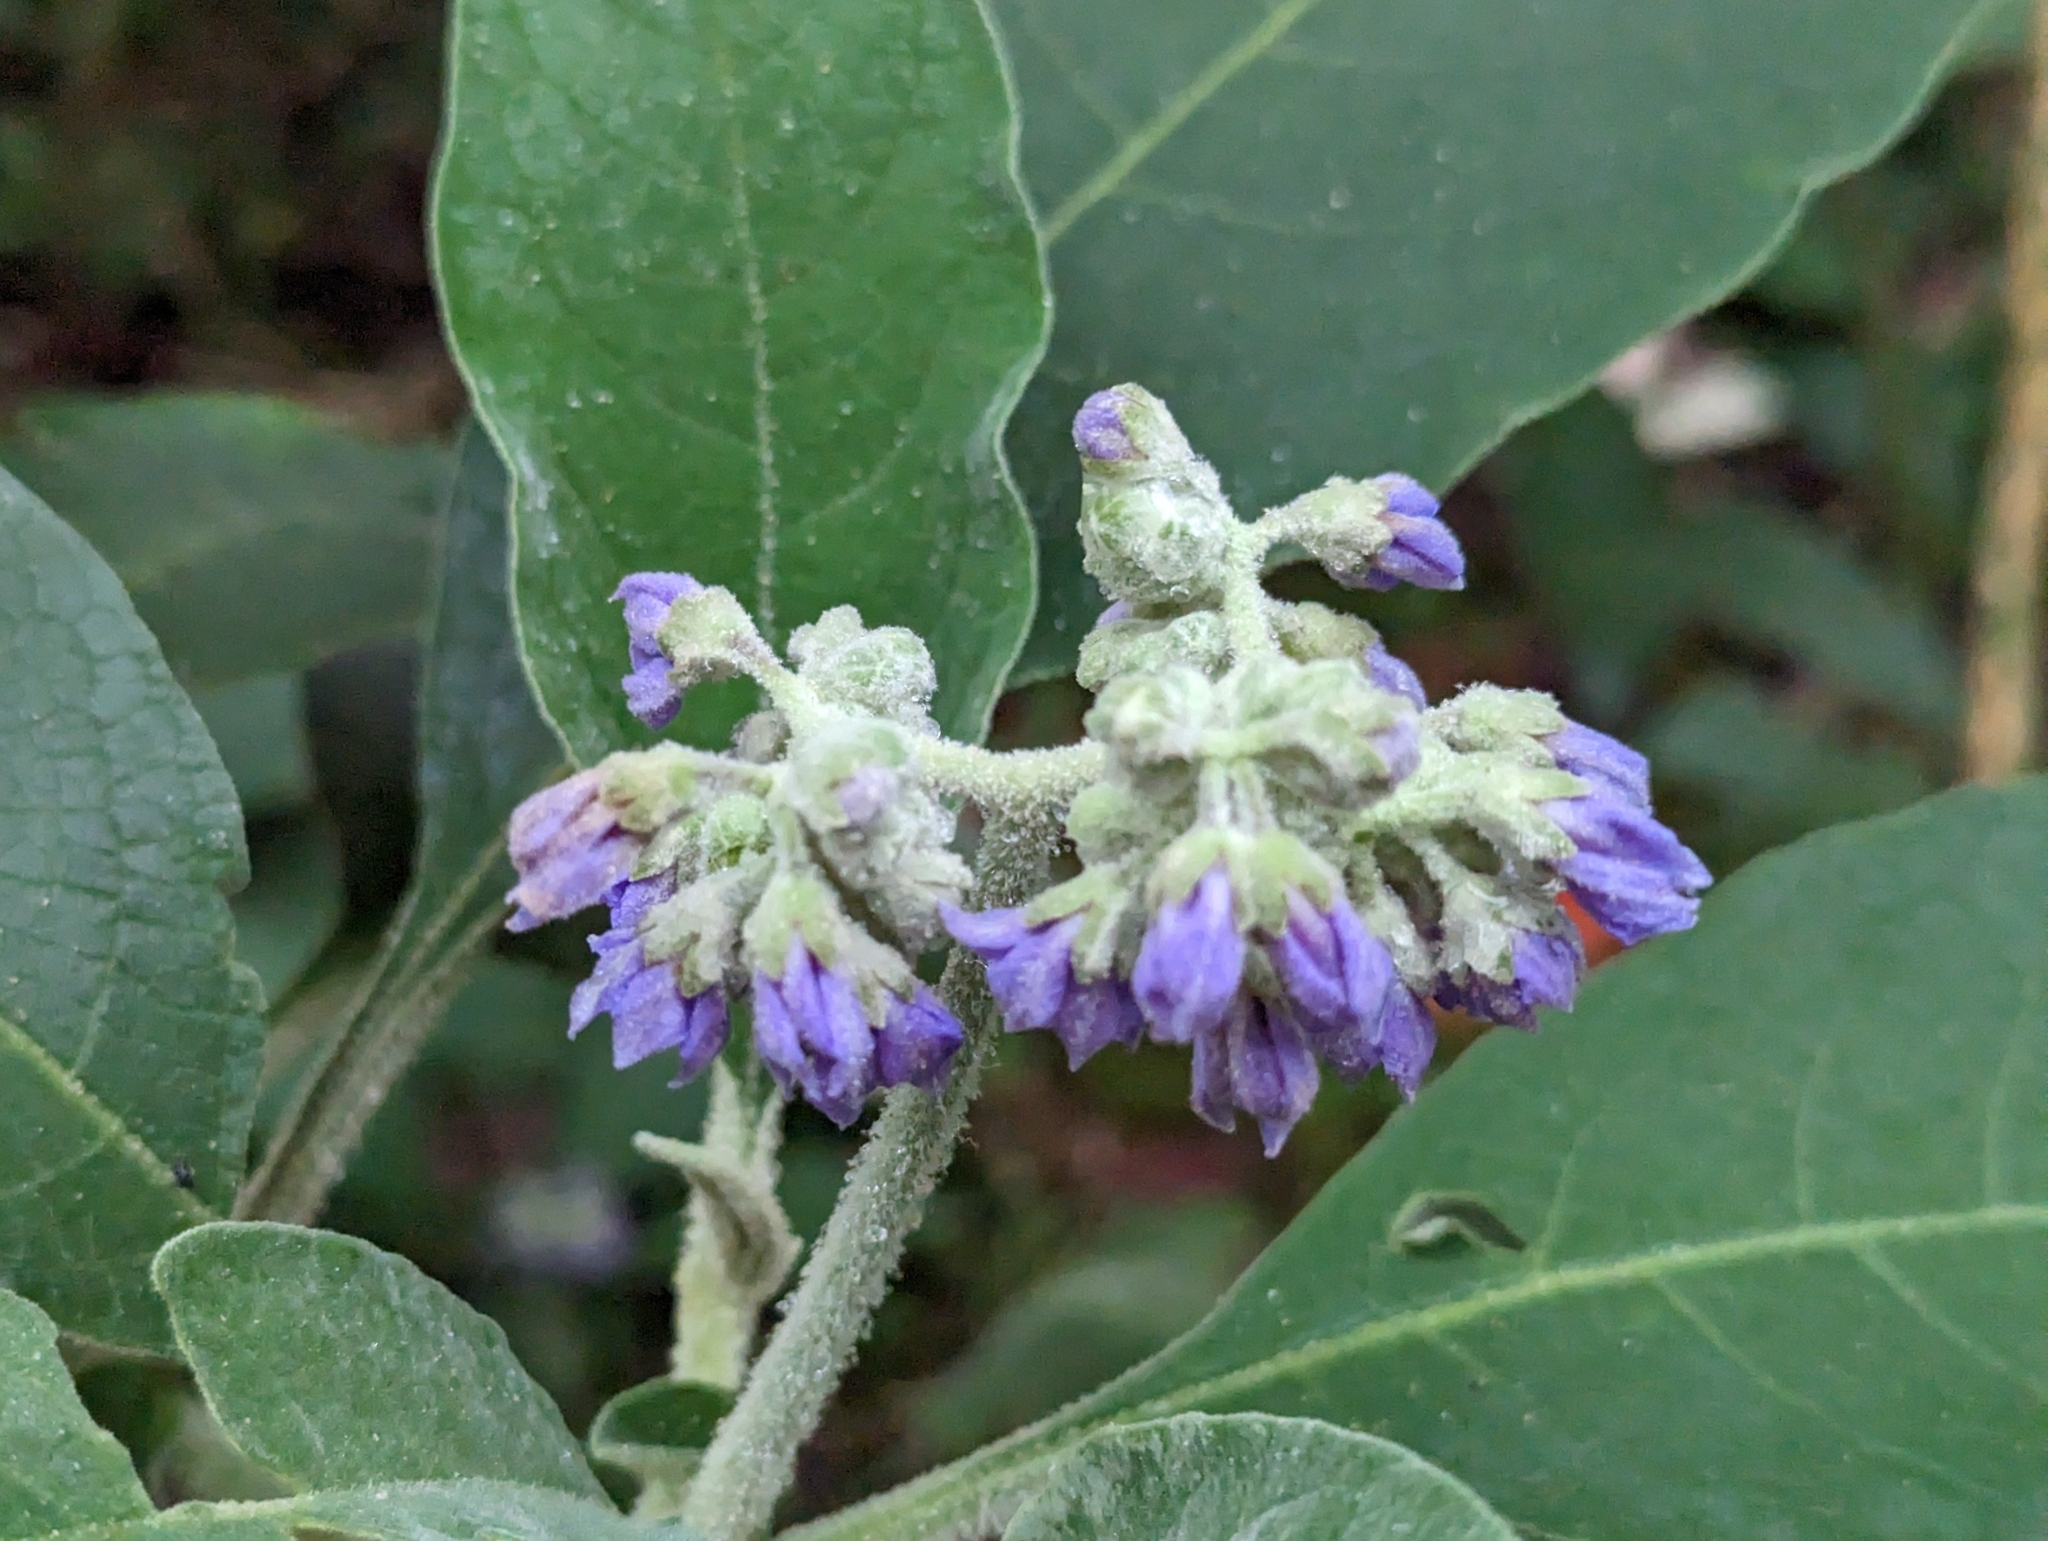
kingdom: Plantae
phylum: Tracheophyta
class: Magnoliopsida
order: Solanales
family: Solanaceae
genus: Solanum
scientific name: Solanum mauritianum
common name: Earleaf nightshade
